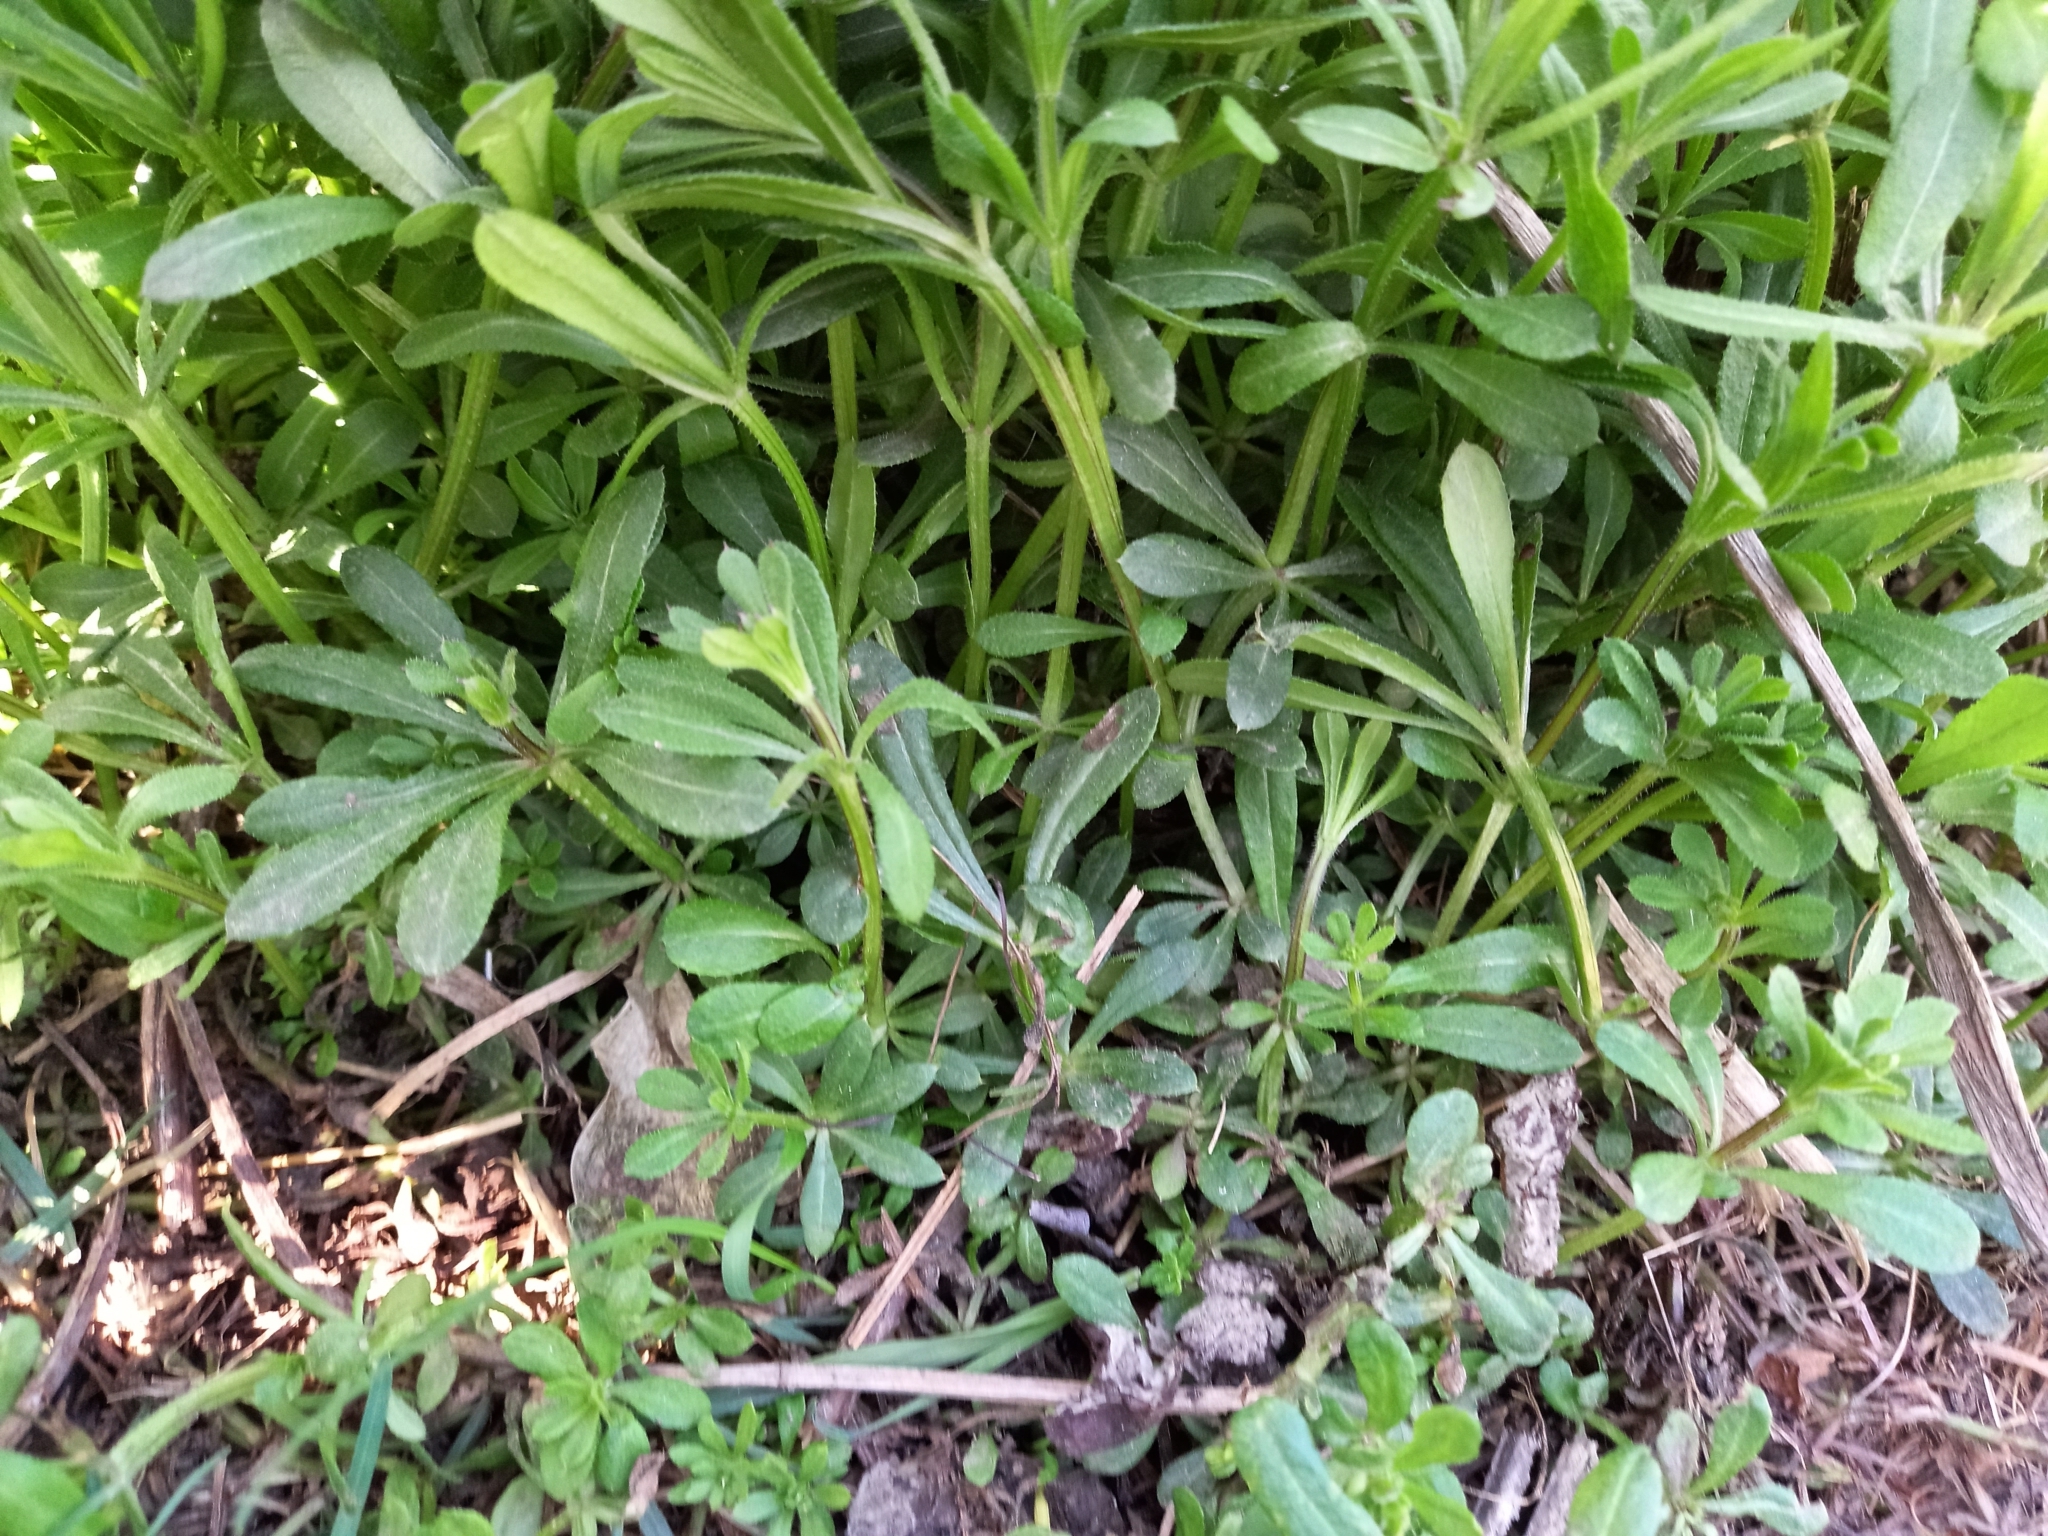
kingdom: Plantae
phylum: Tracheophyta
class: Magnoliopsida
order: Gentianales
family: Rubiaceae
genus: Galium
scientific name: Galium aparine
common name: Cleavers
